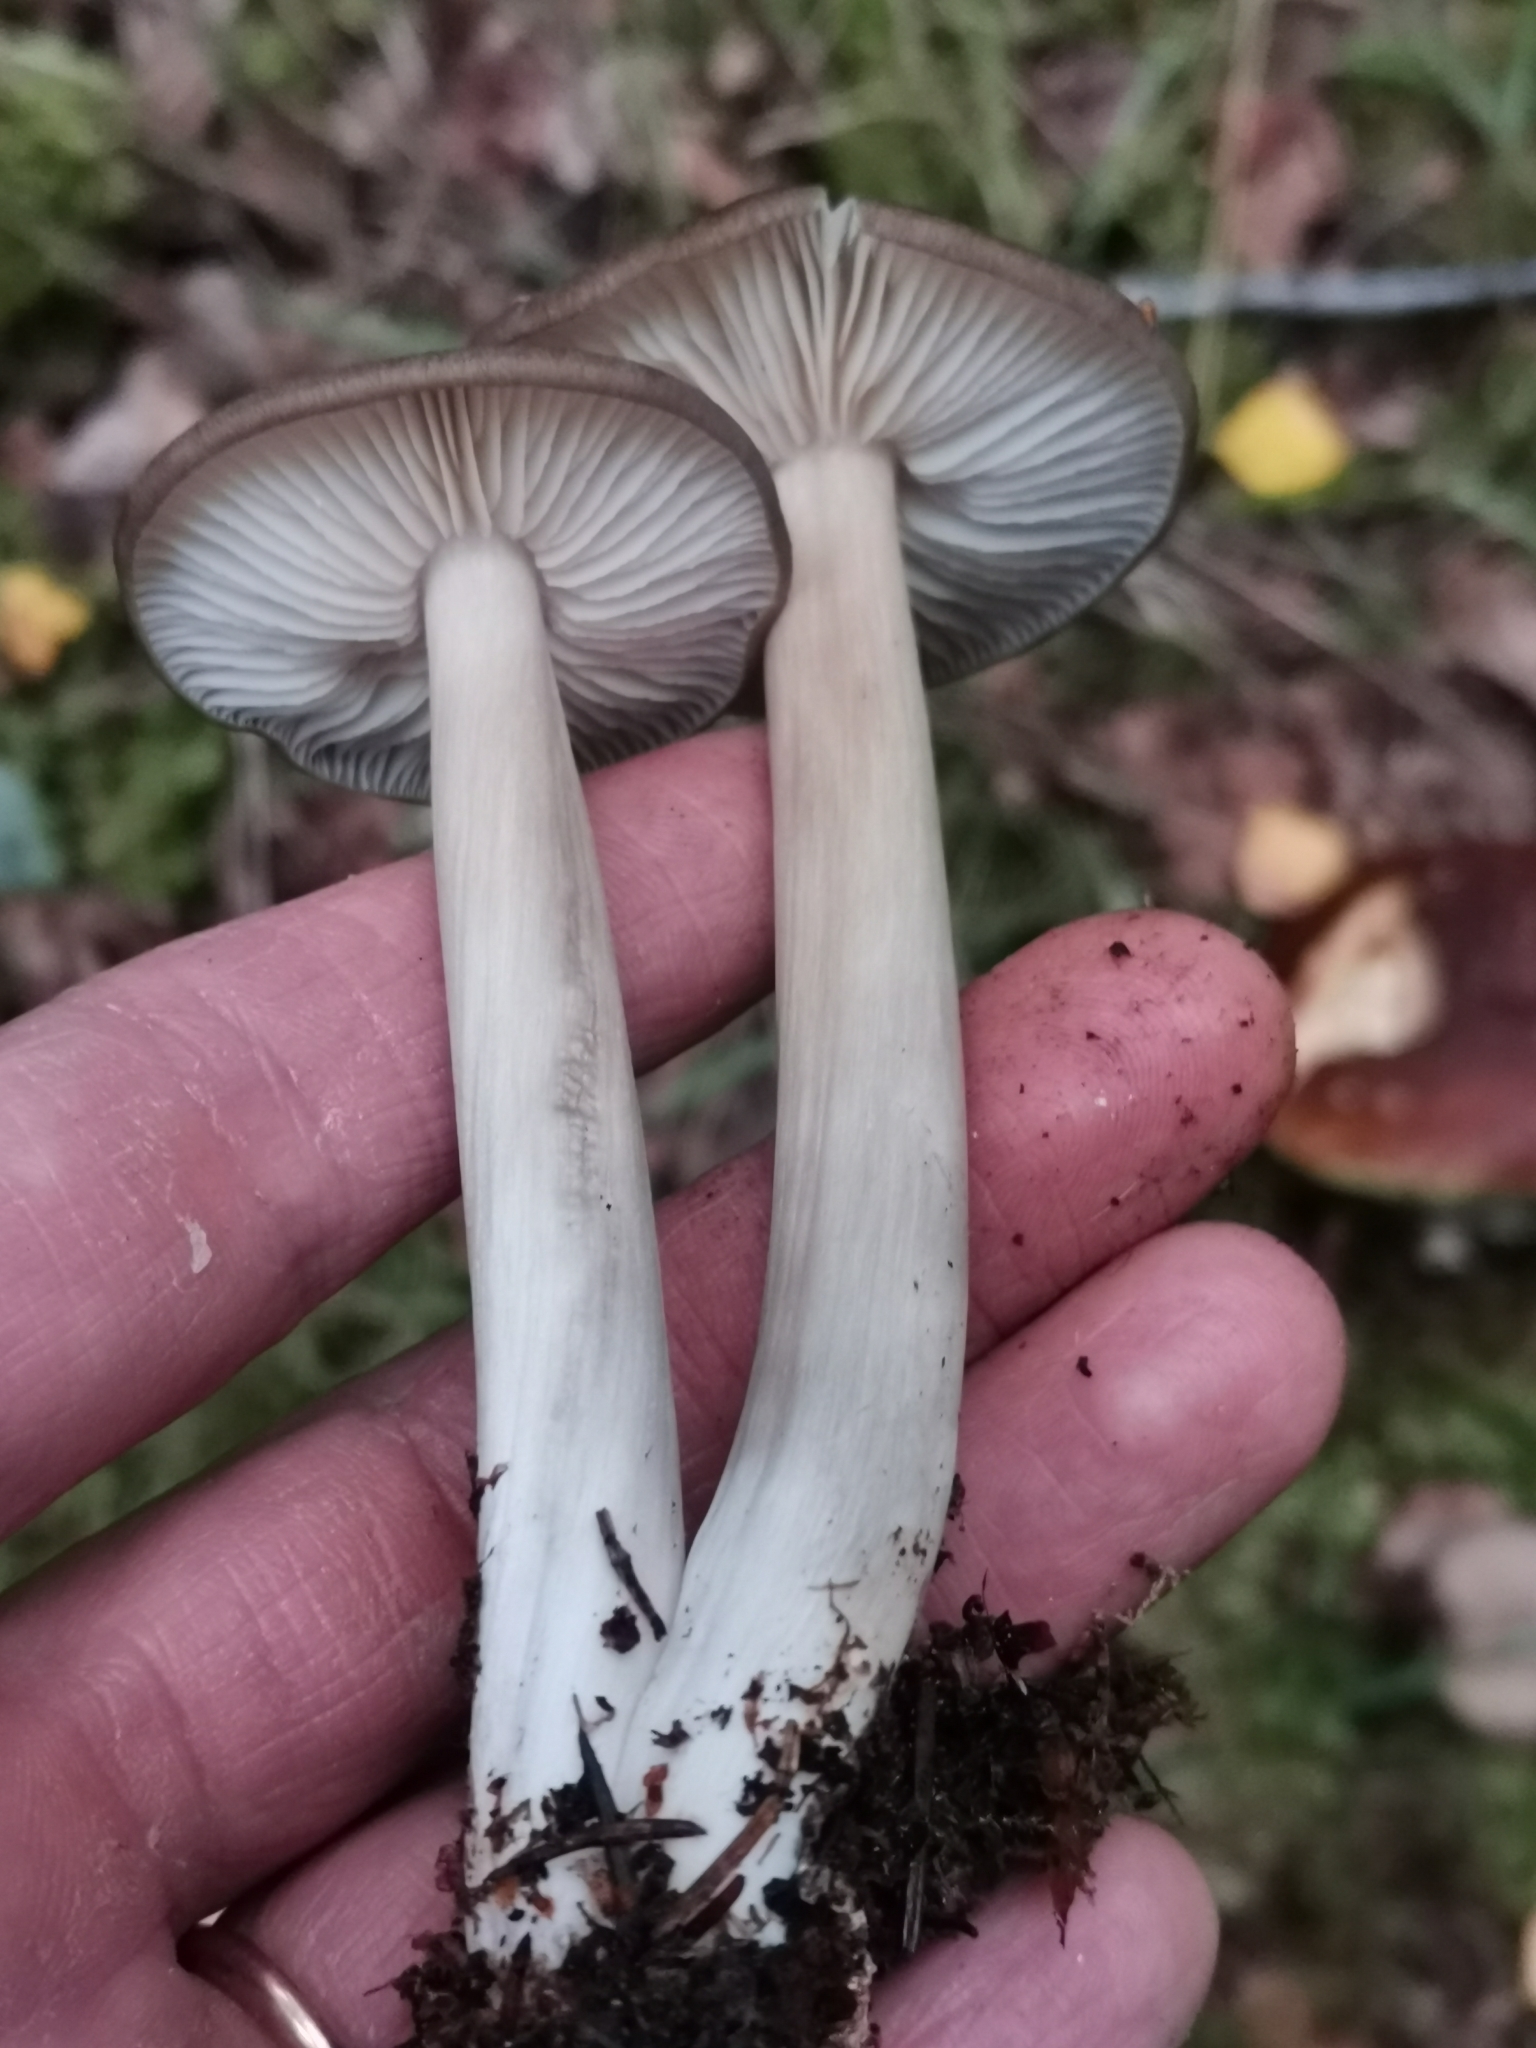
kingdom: Fungi
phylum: Basidiomycota
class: Agaricomycetes
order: Agaricales
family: Tricholomataceae
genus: Megacollybia
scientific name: Megacollybia platyphylla
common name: Whitelaced shank
